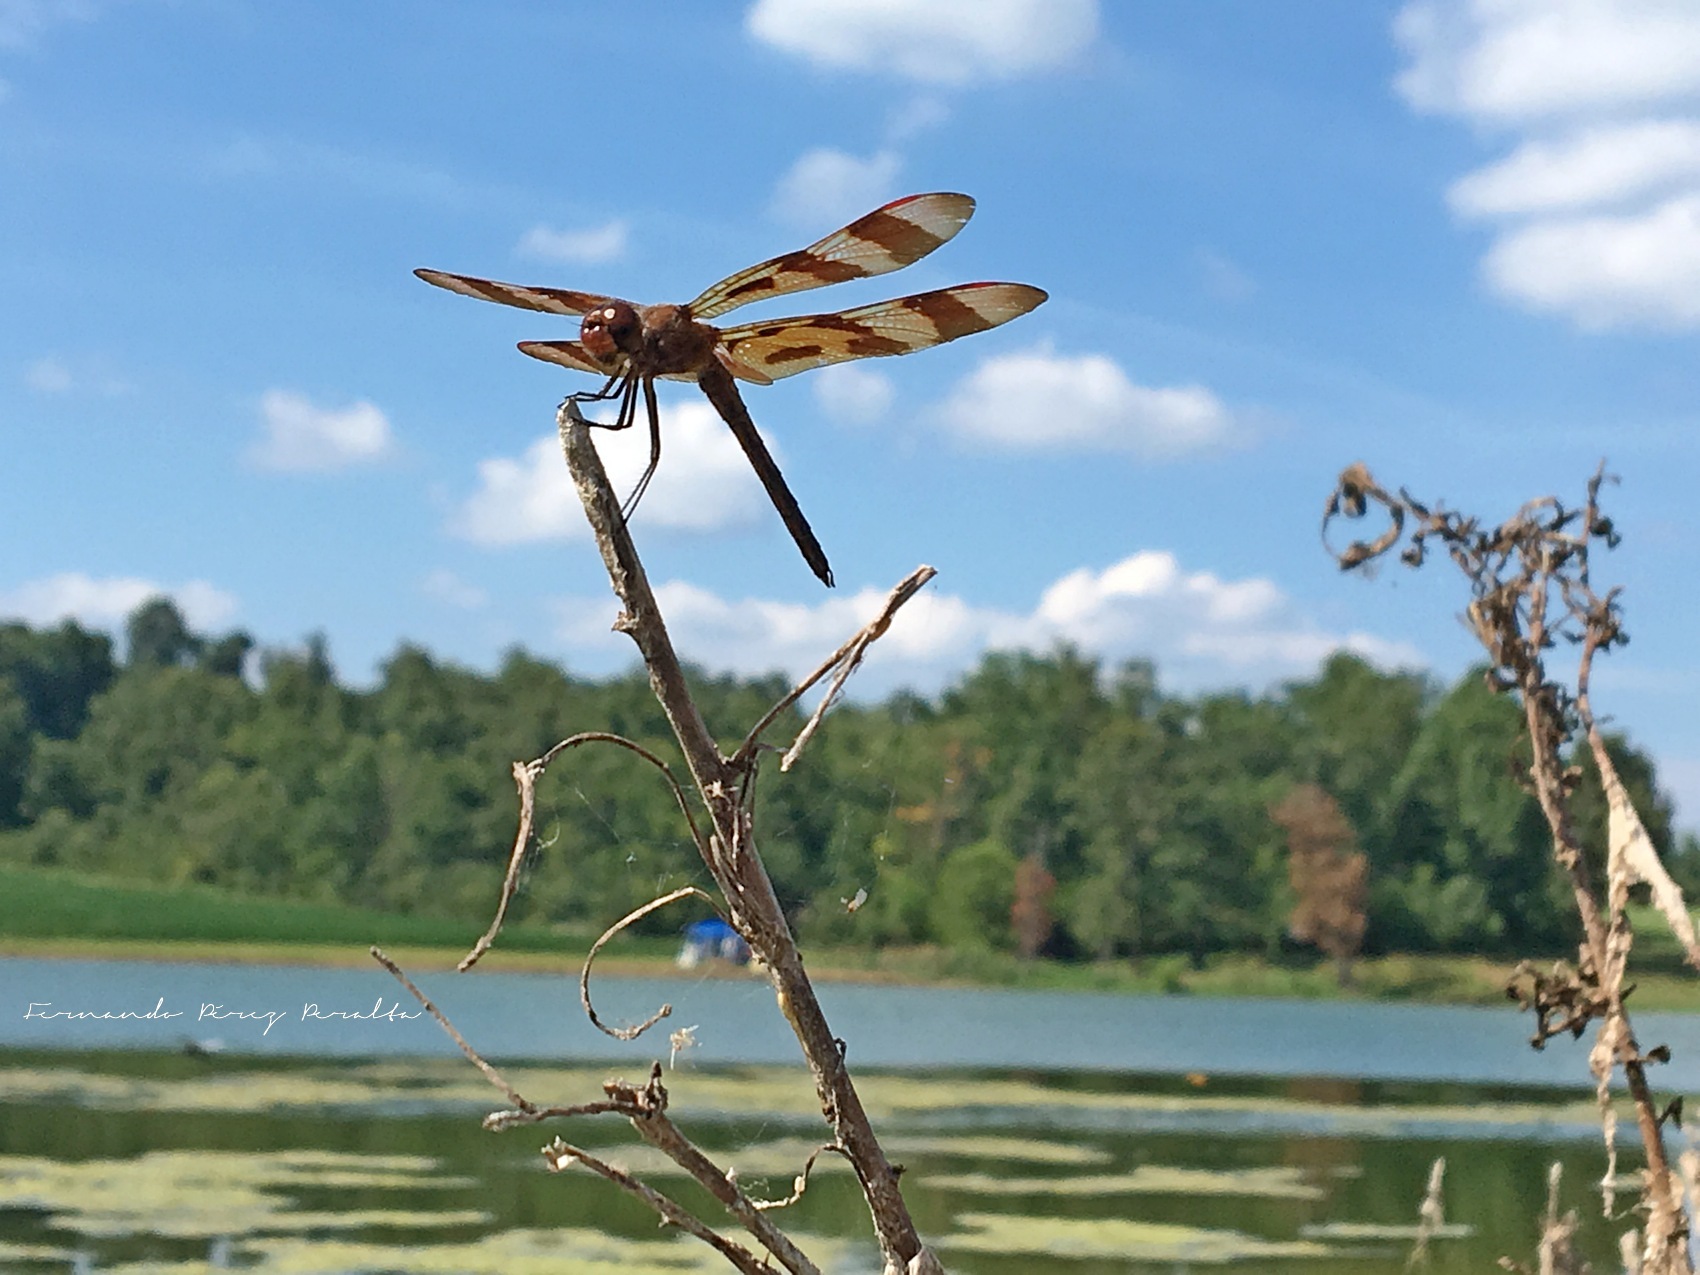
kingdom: Animalia
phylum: Arthropoda
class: Insecta
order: Odonata
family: Libellulidae
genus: Celithemis
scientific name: Celithemis eponina
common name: Halloween pennant
